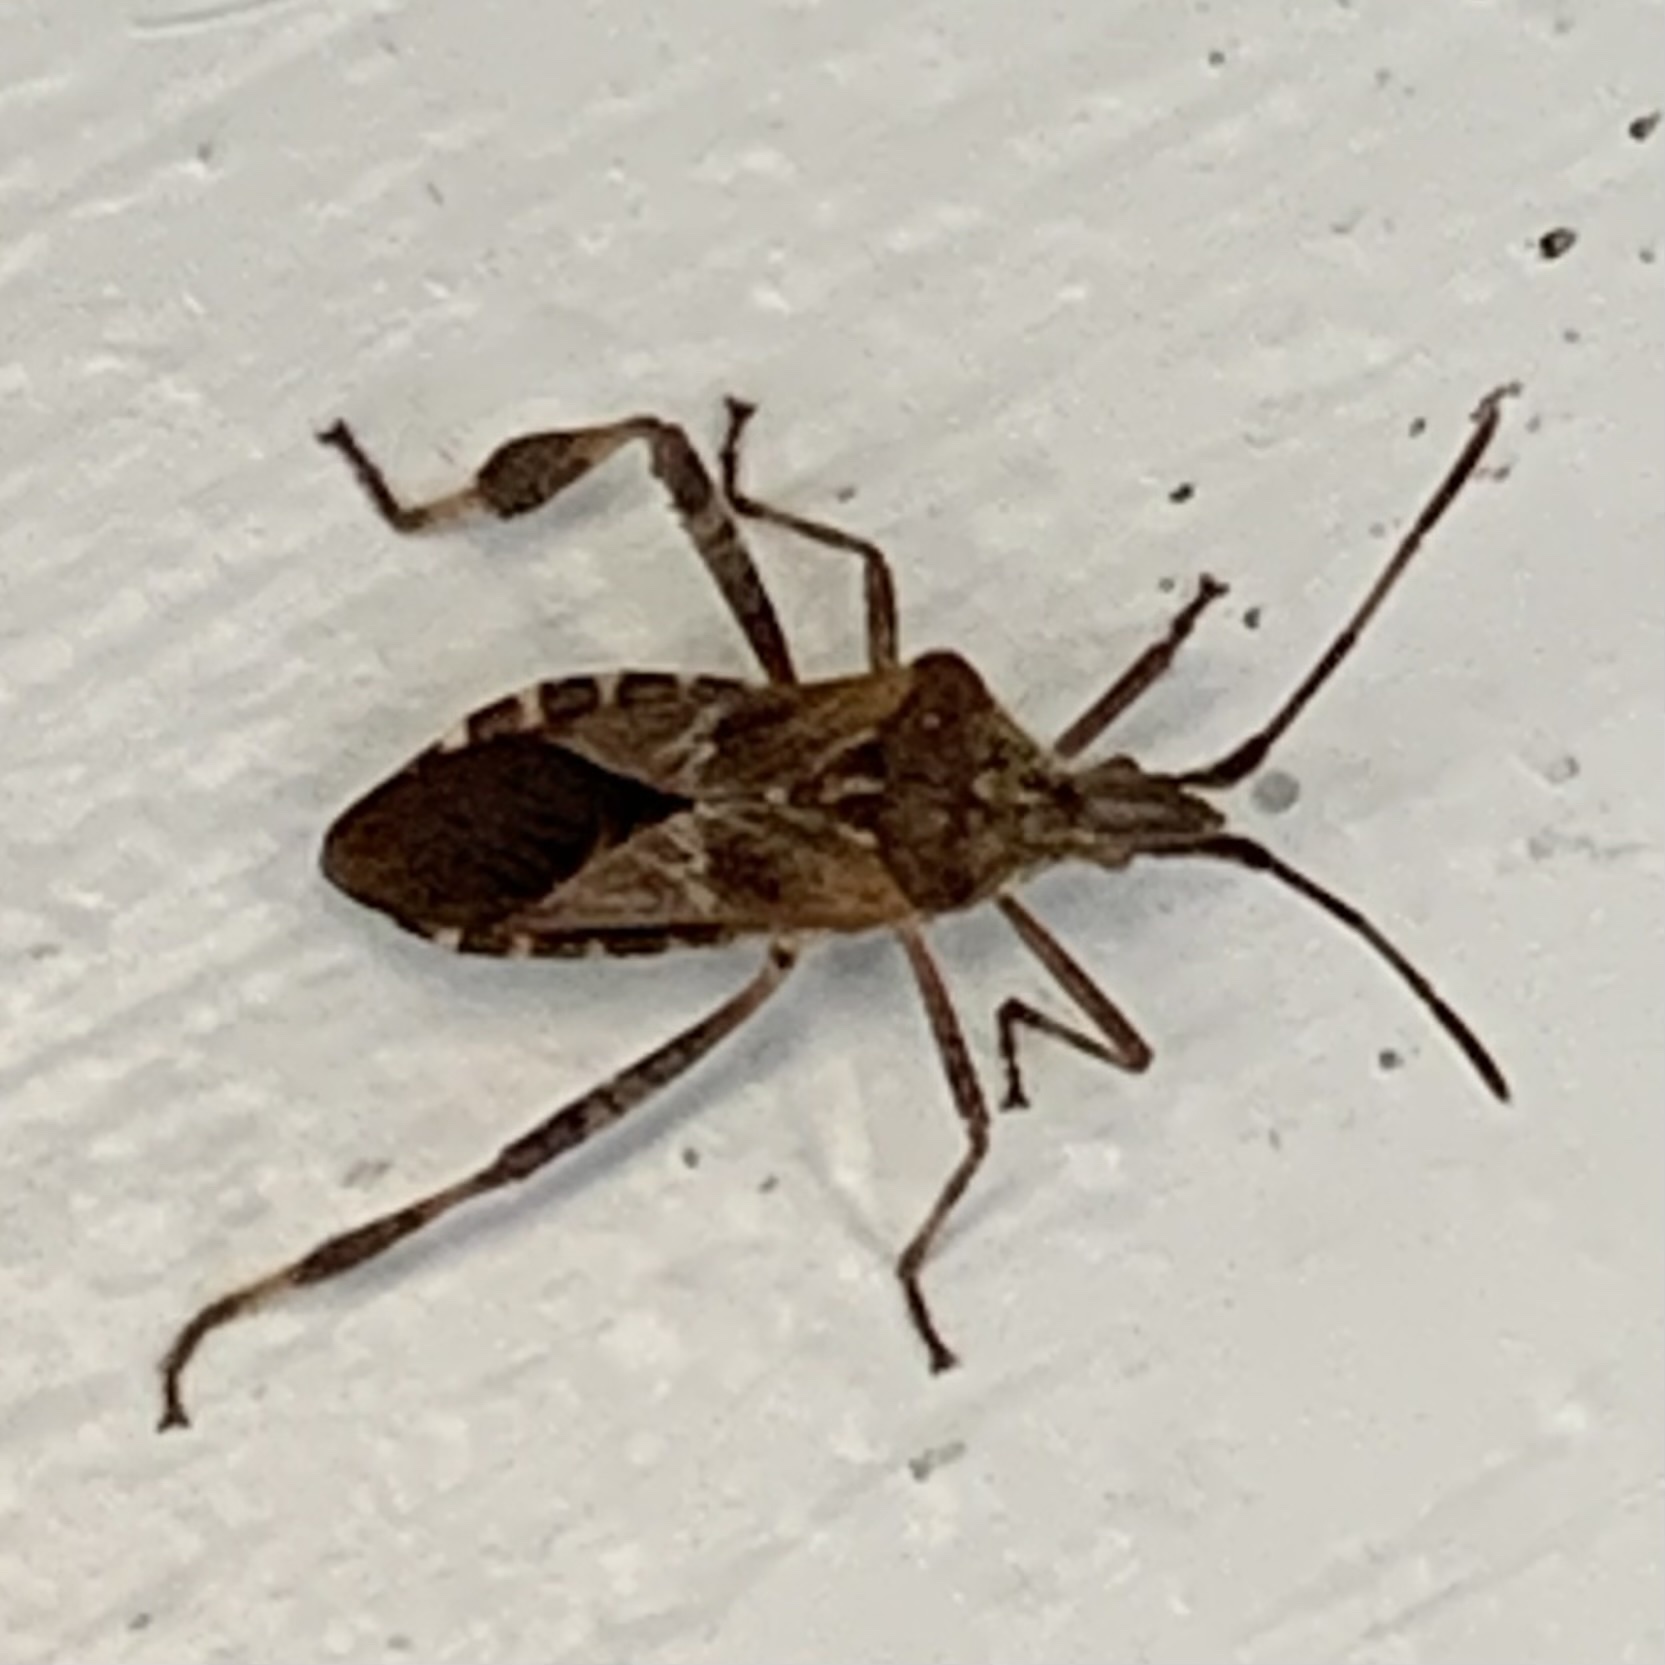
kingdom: Animalia
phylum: Arthropoda
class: Insecta
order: Hemiptera
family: Coreidae
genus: Leptoglossus
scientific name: Leptoglossus occidentalis
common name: Western conifer-seed bug
